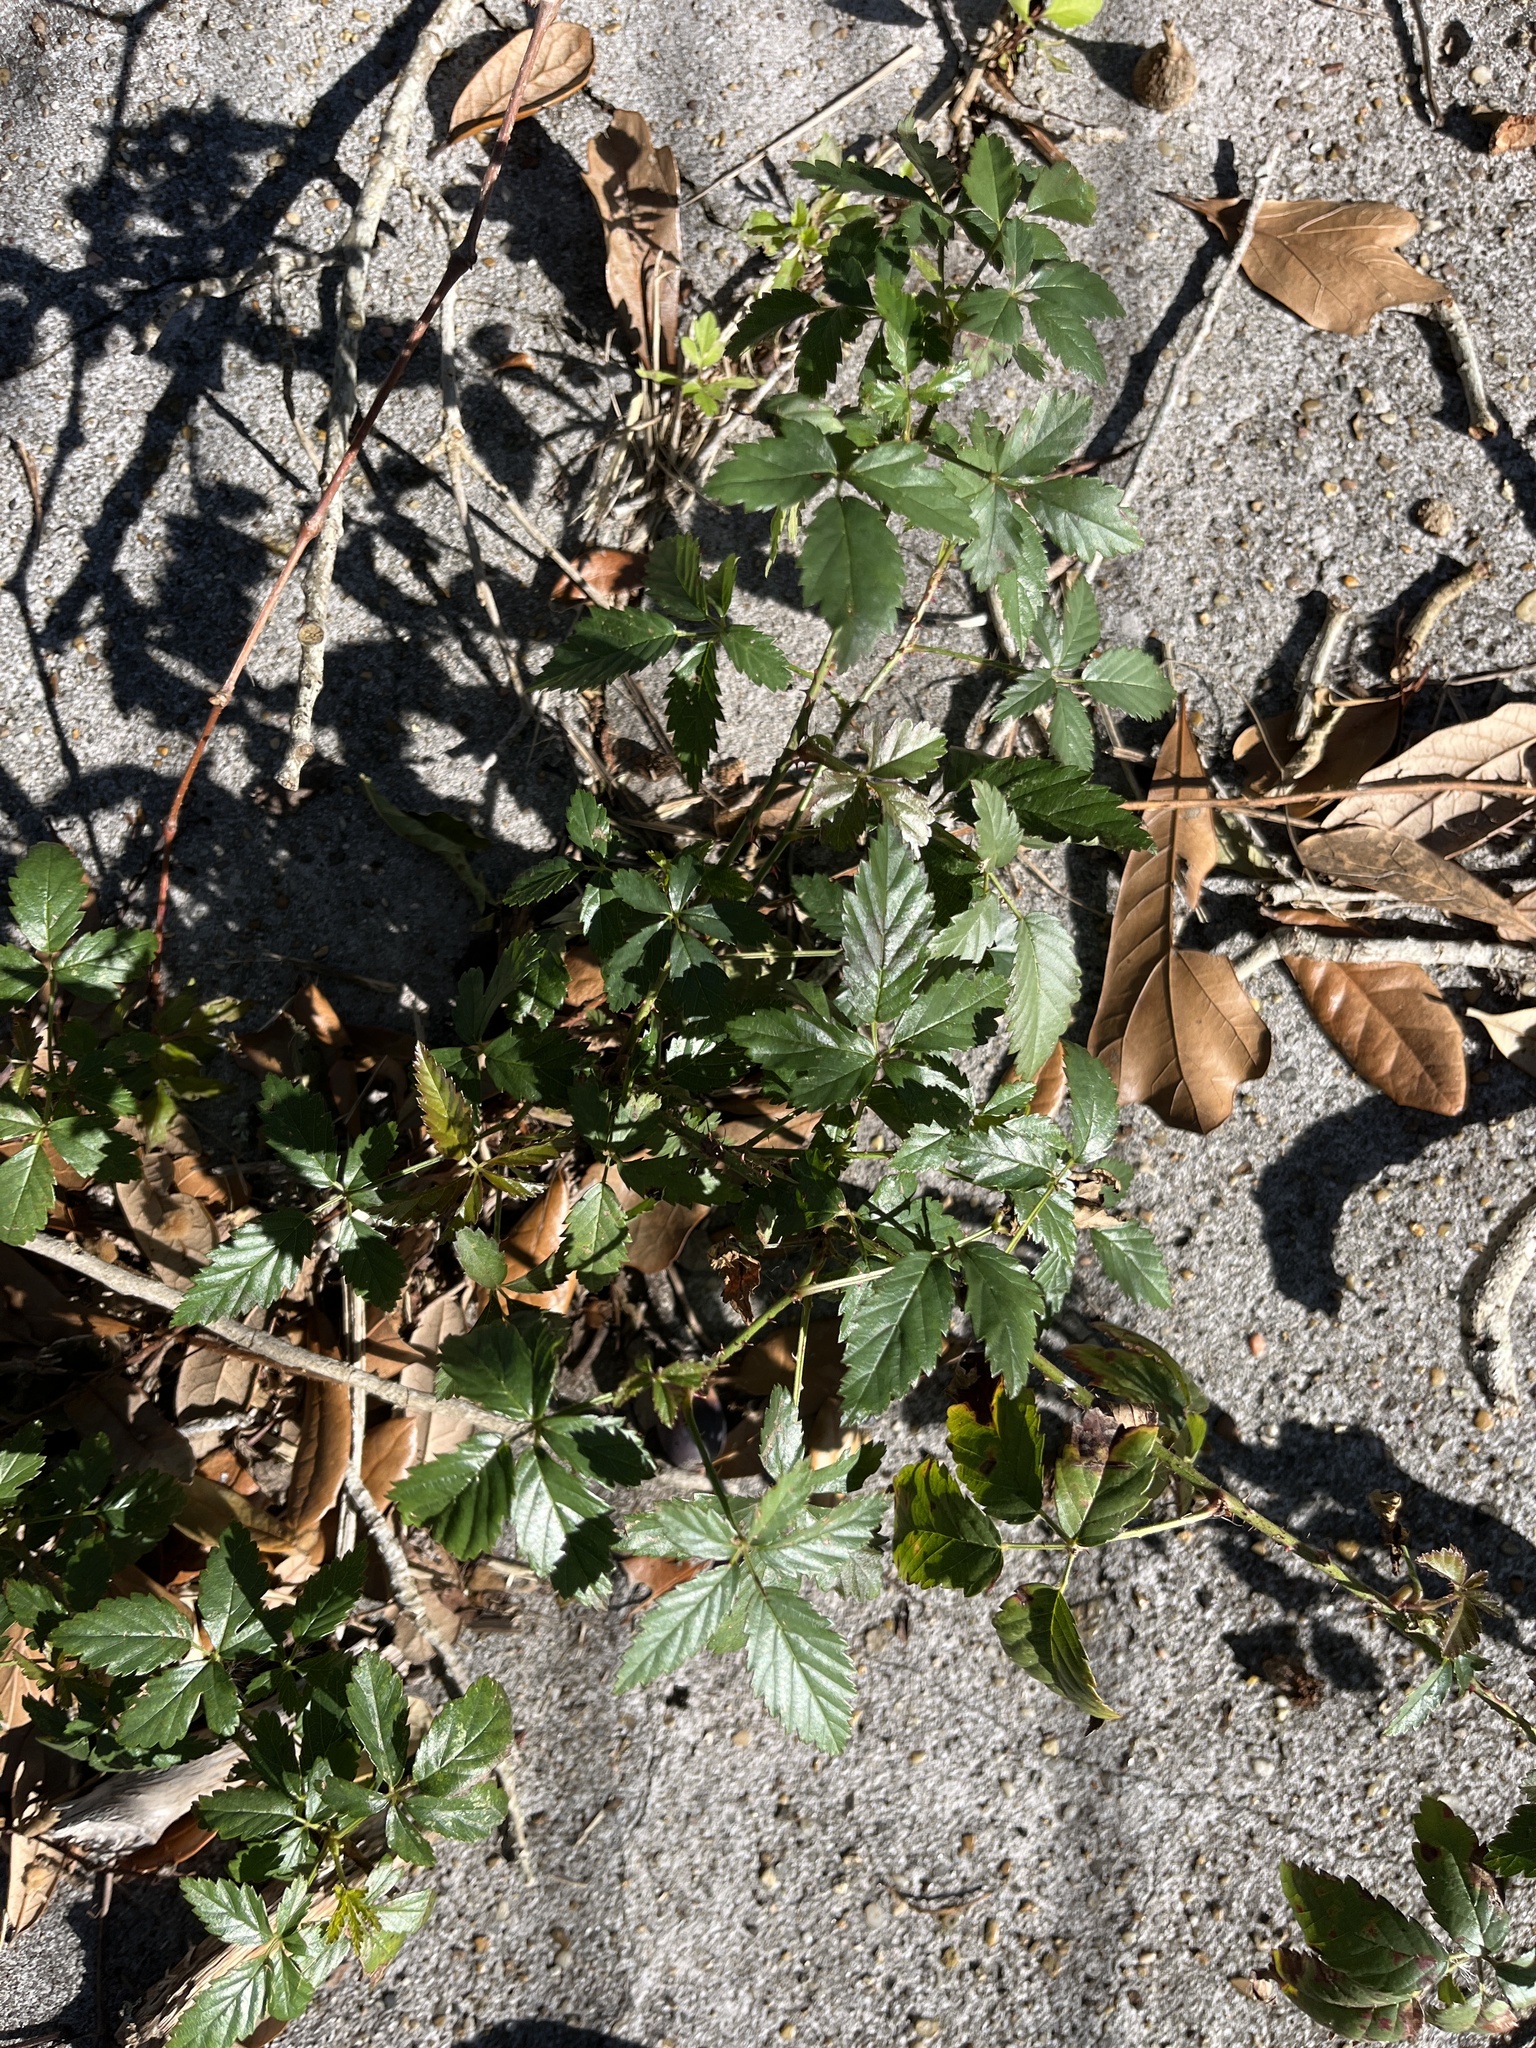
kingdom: Plantae
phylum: Tracheophyta
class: Magnoliopsida
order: Rosales
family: Rosaceae
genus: Rubus
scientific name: Rubus trivialis
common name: Southern dewberry
